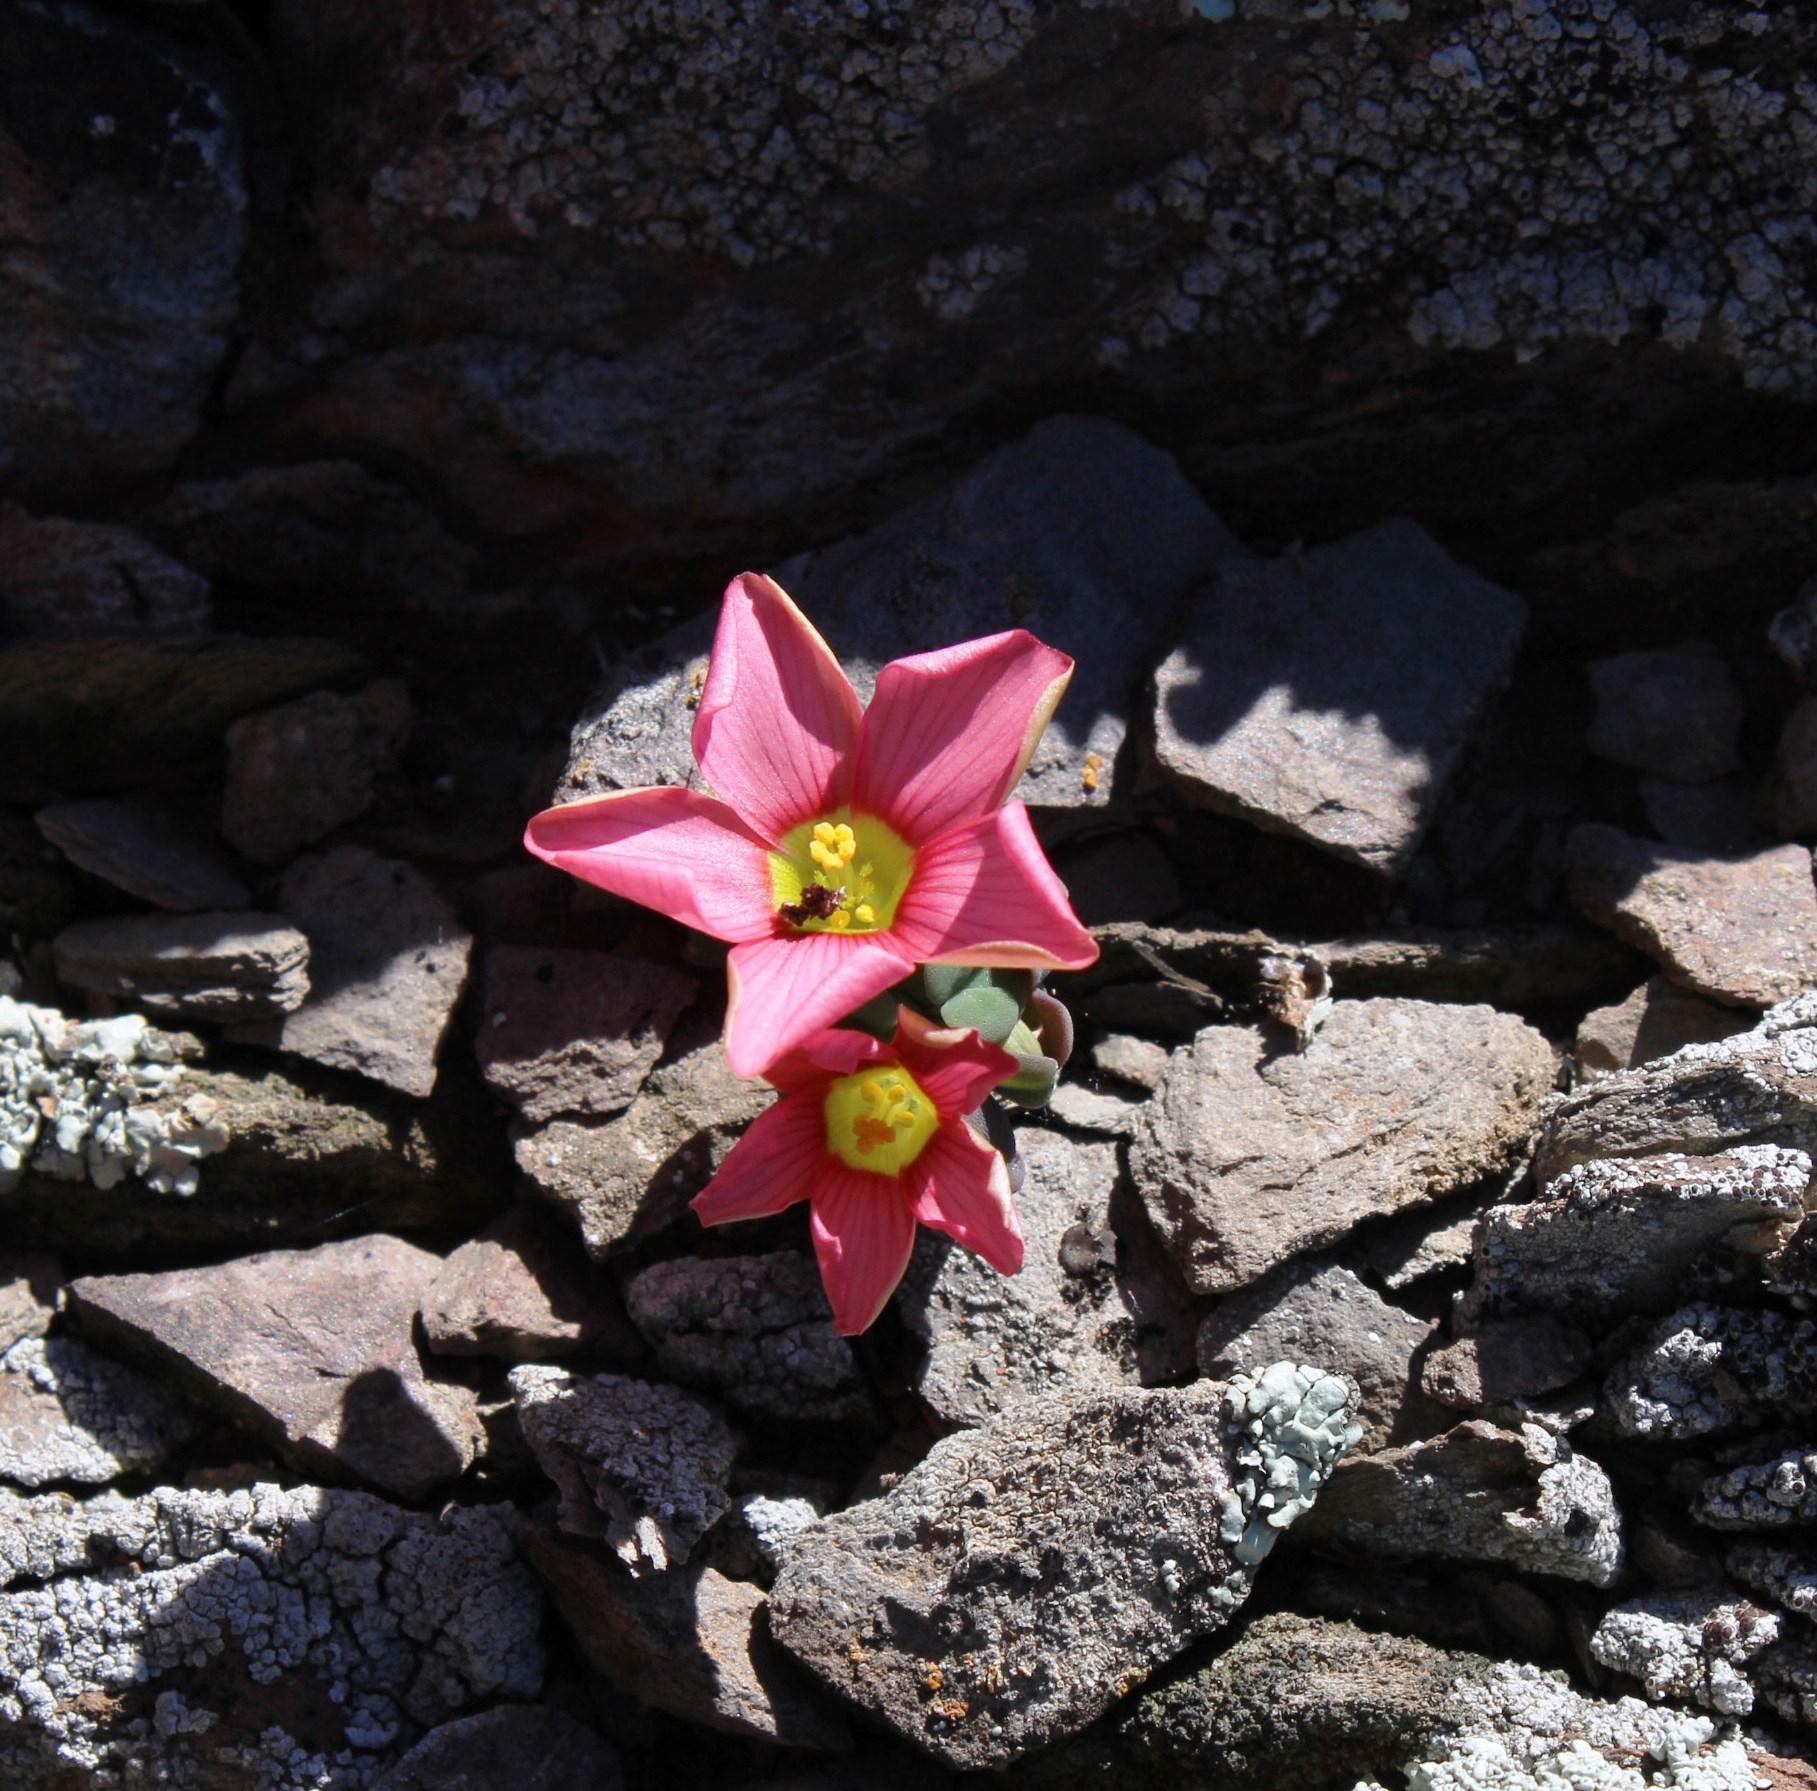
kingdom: Plantae
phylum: Tracheophyta
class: Magnoliopsida
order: Oxalidales
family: Oxalidaceae
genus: Oxalis
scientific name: Oxalis convexula
